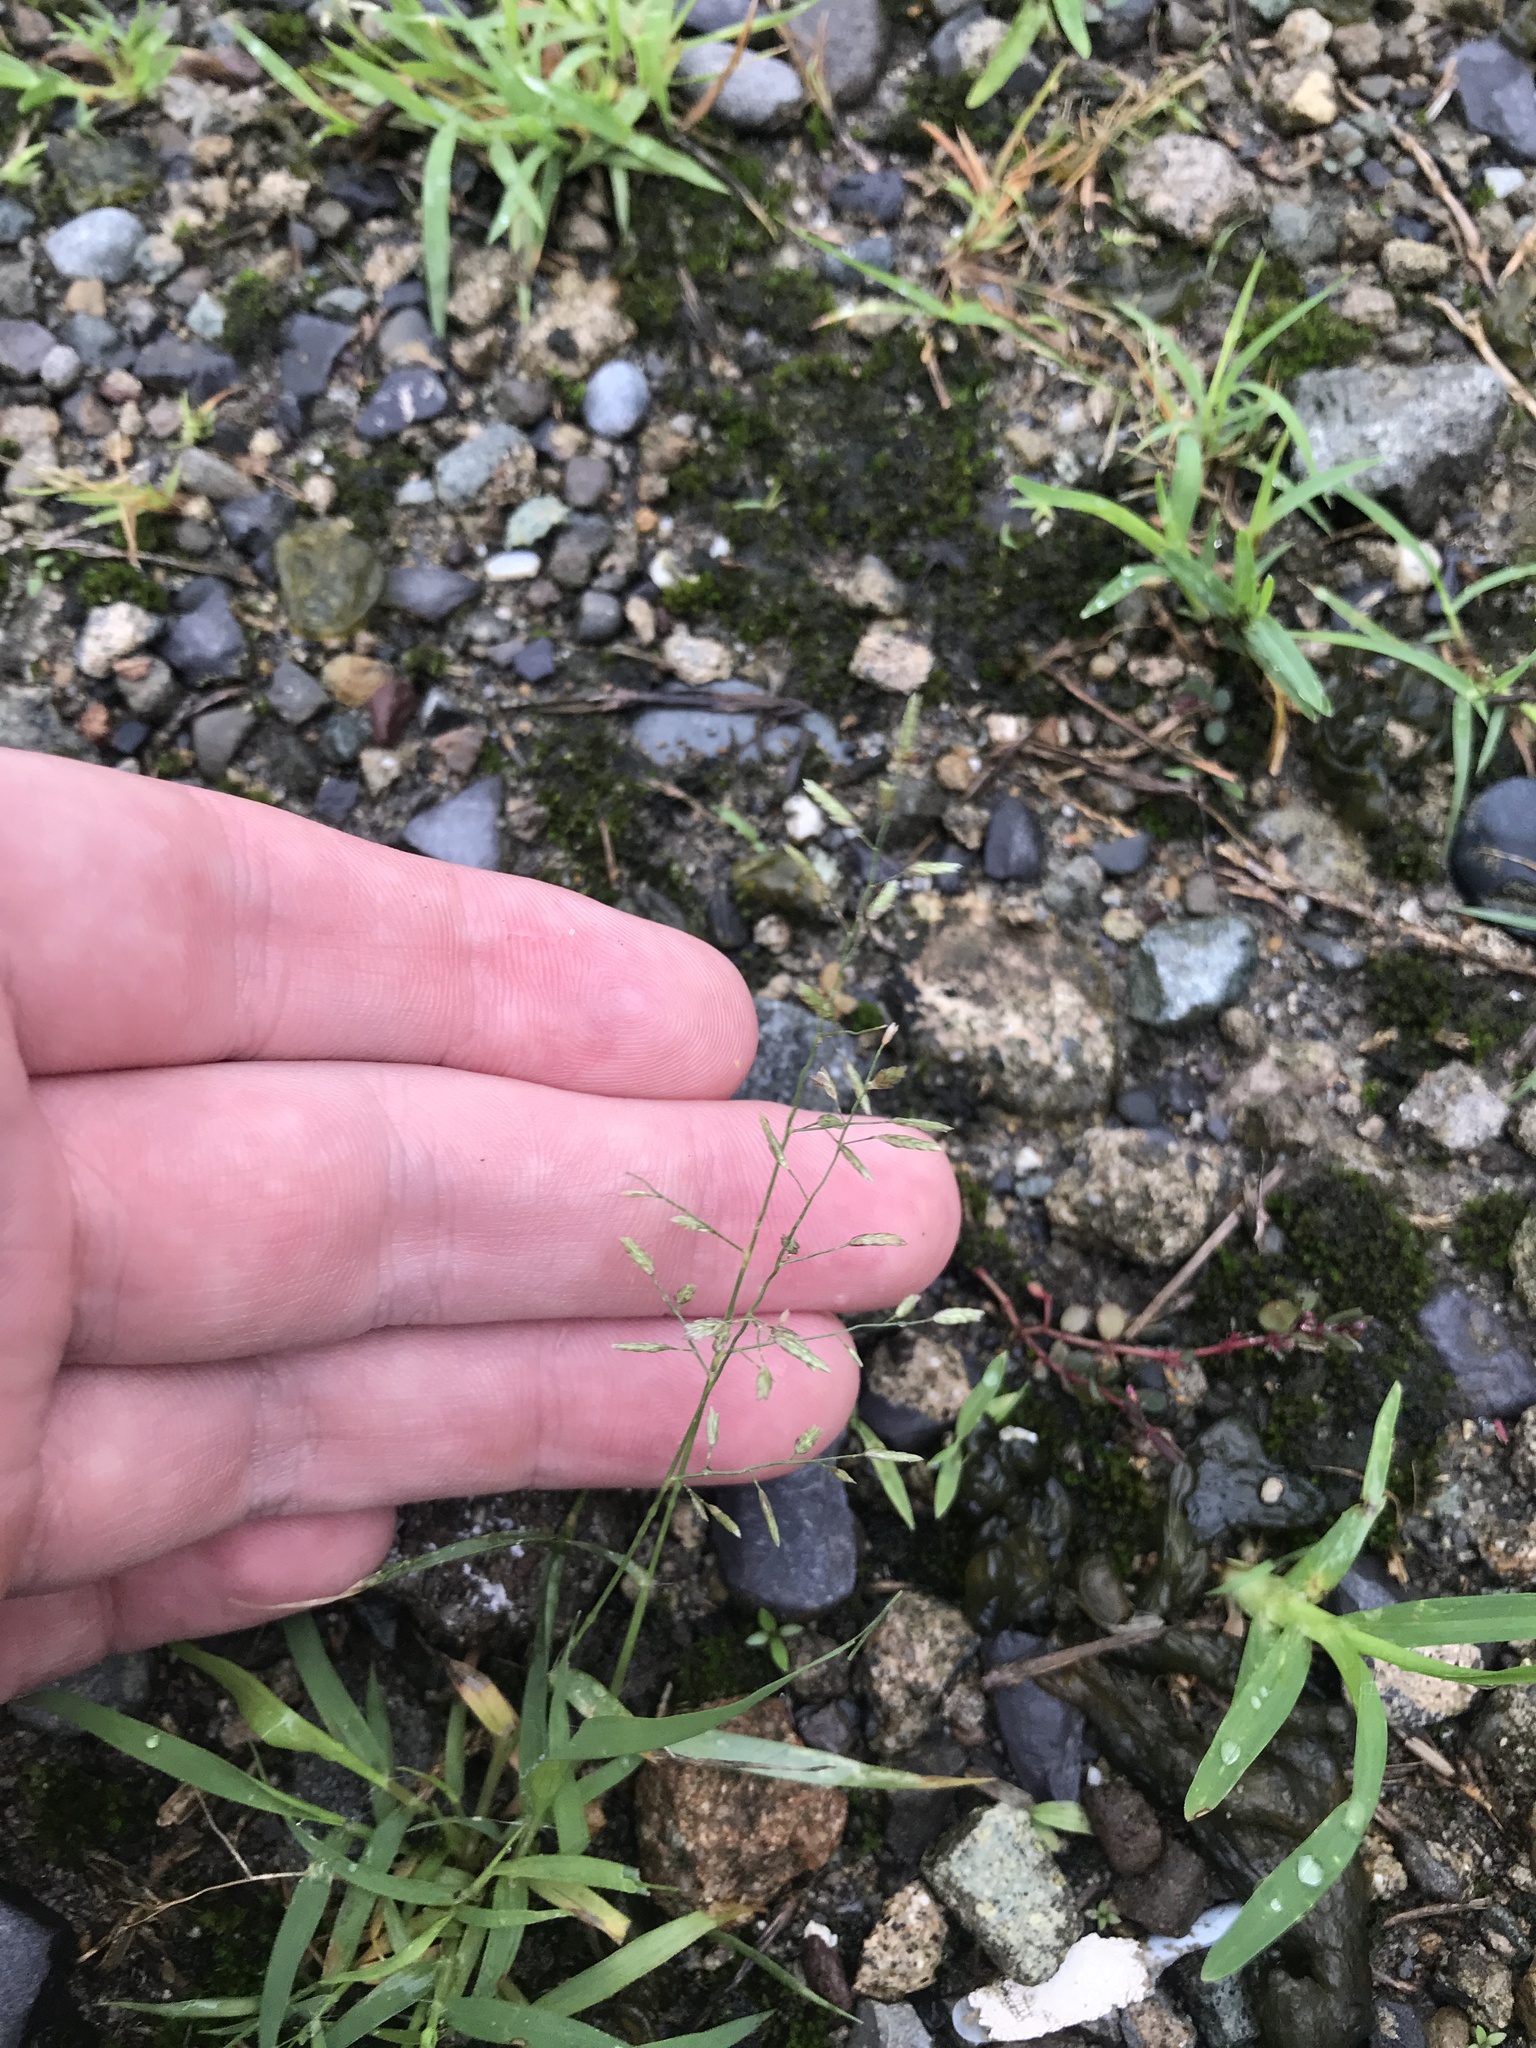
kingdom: Plantae
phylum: Tracheophyta
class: Liliopsida
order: Poales
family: Poaceae
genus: Eragrostis
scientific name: Eragrostis minor
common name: Small love-grass
